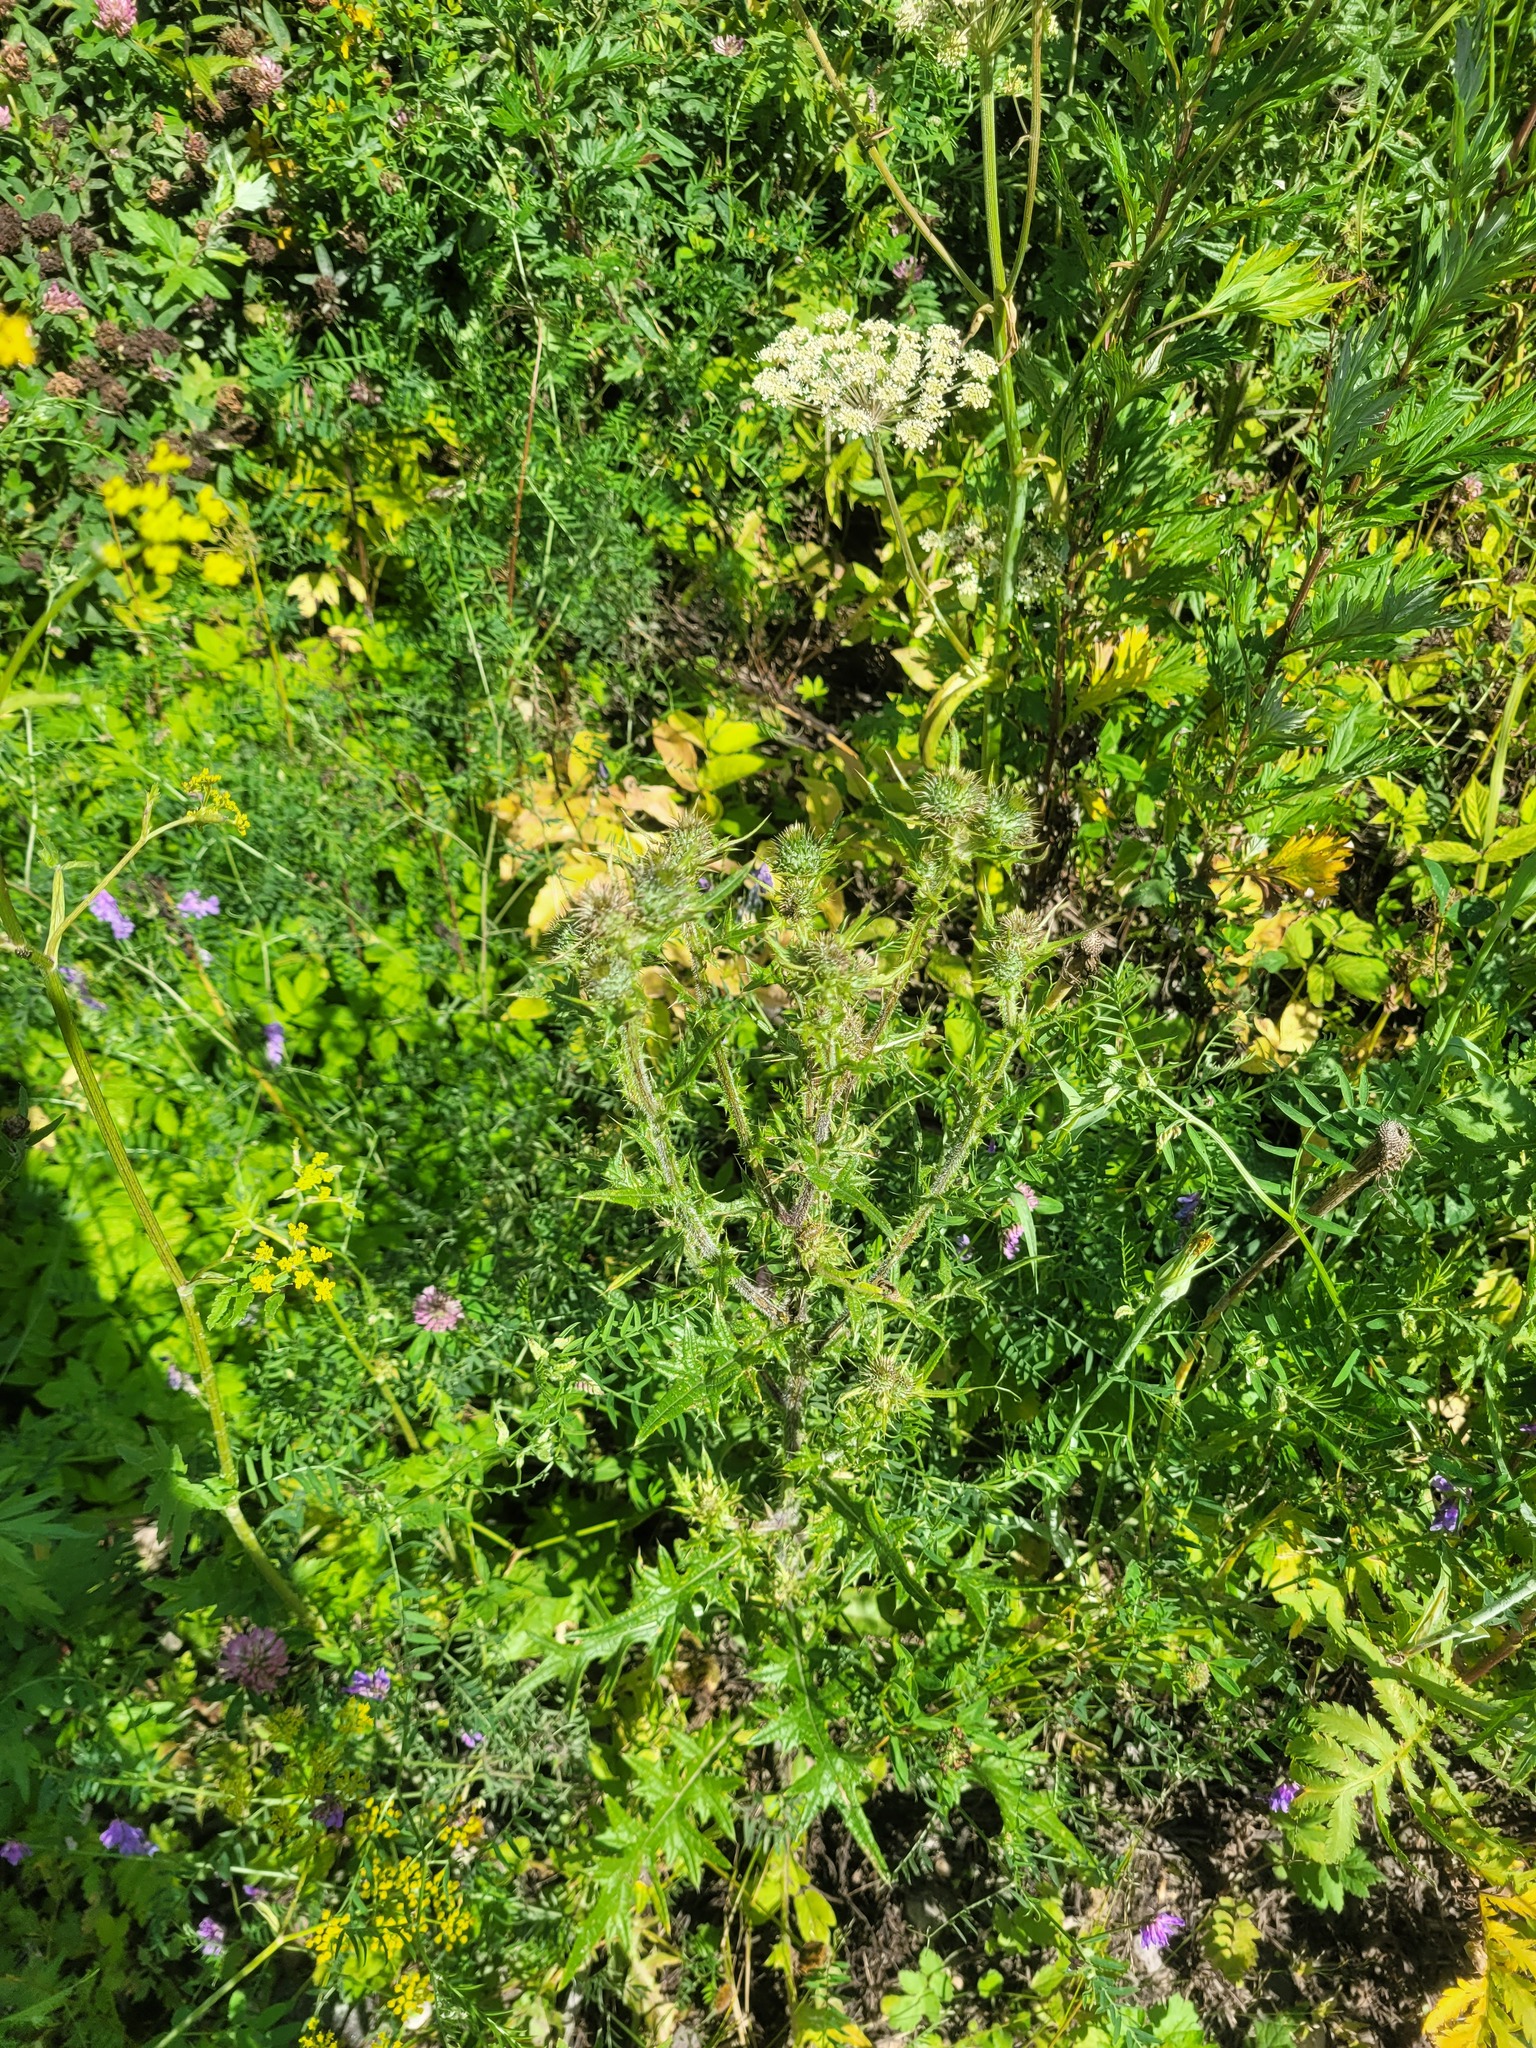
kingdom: Plantae
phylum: Tracheophyta
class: Magnoliopsida
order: Asterales
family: Asteraceae
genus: Cirsium
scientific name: Cirsium vulgare
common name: Bull thistle
